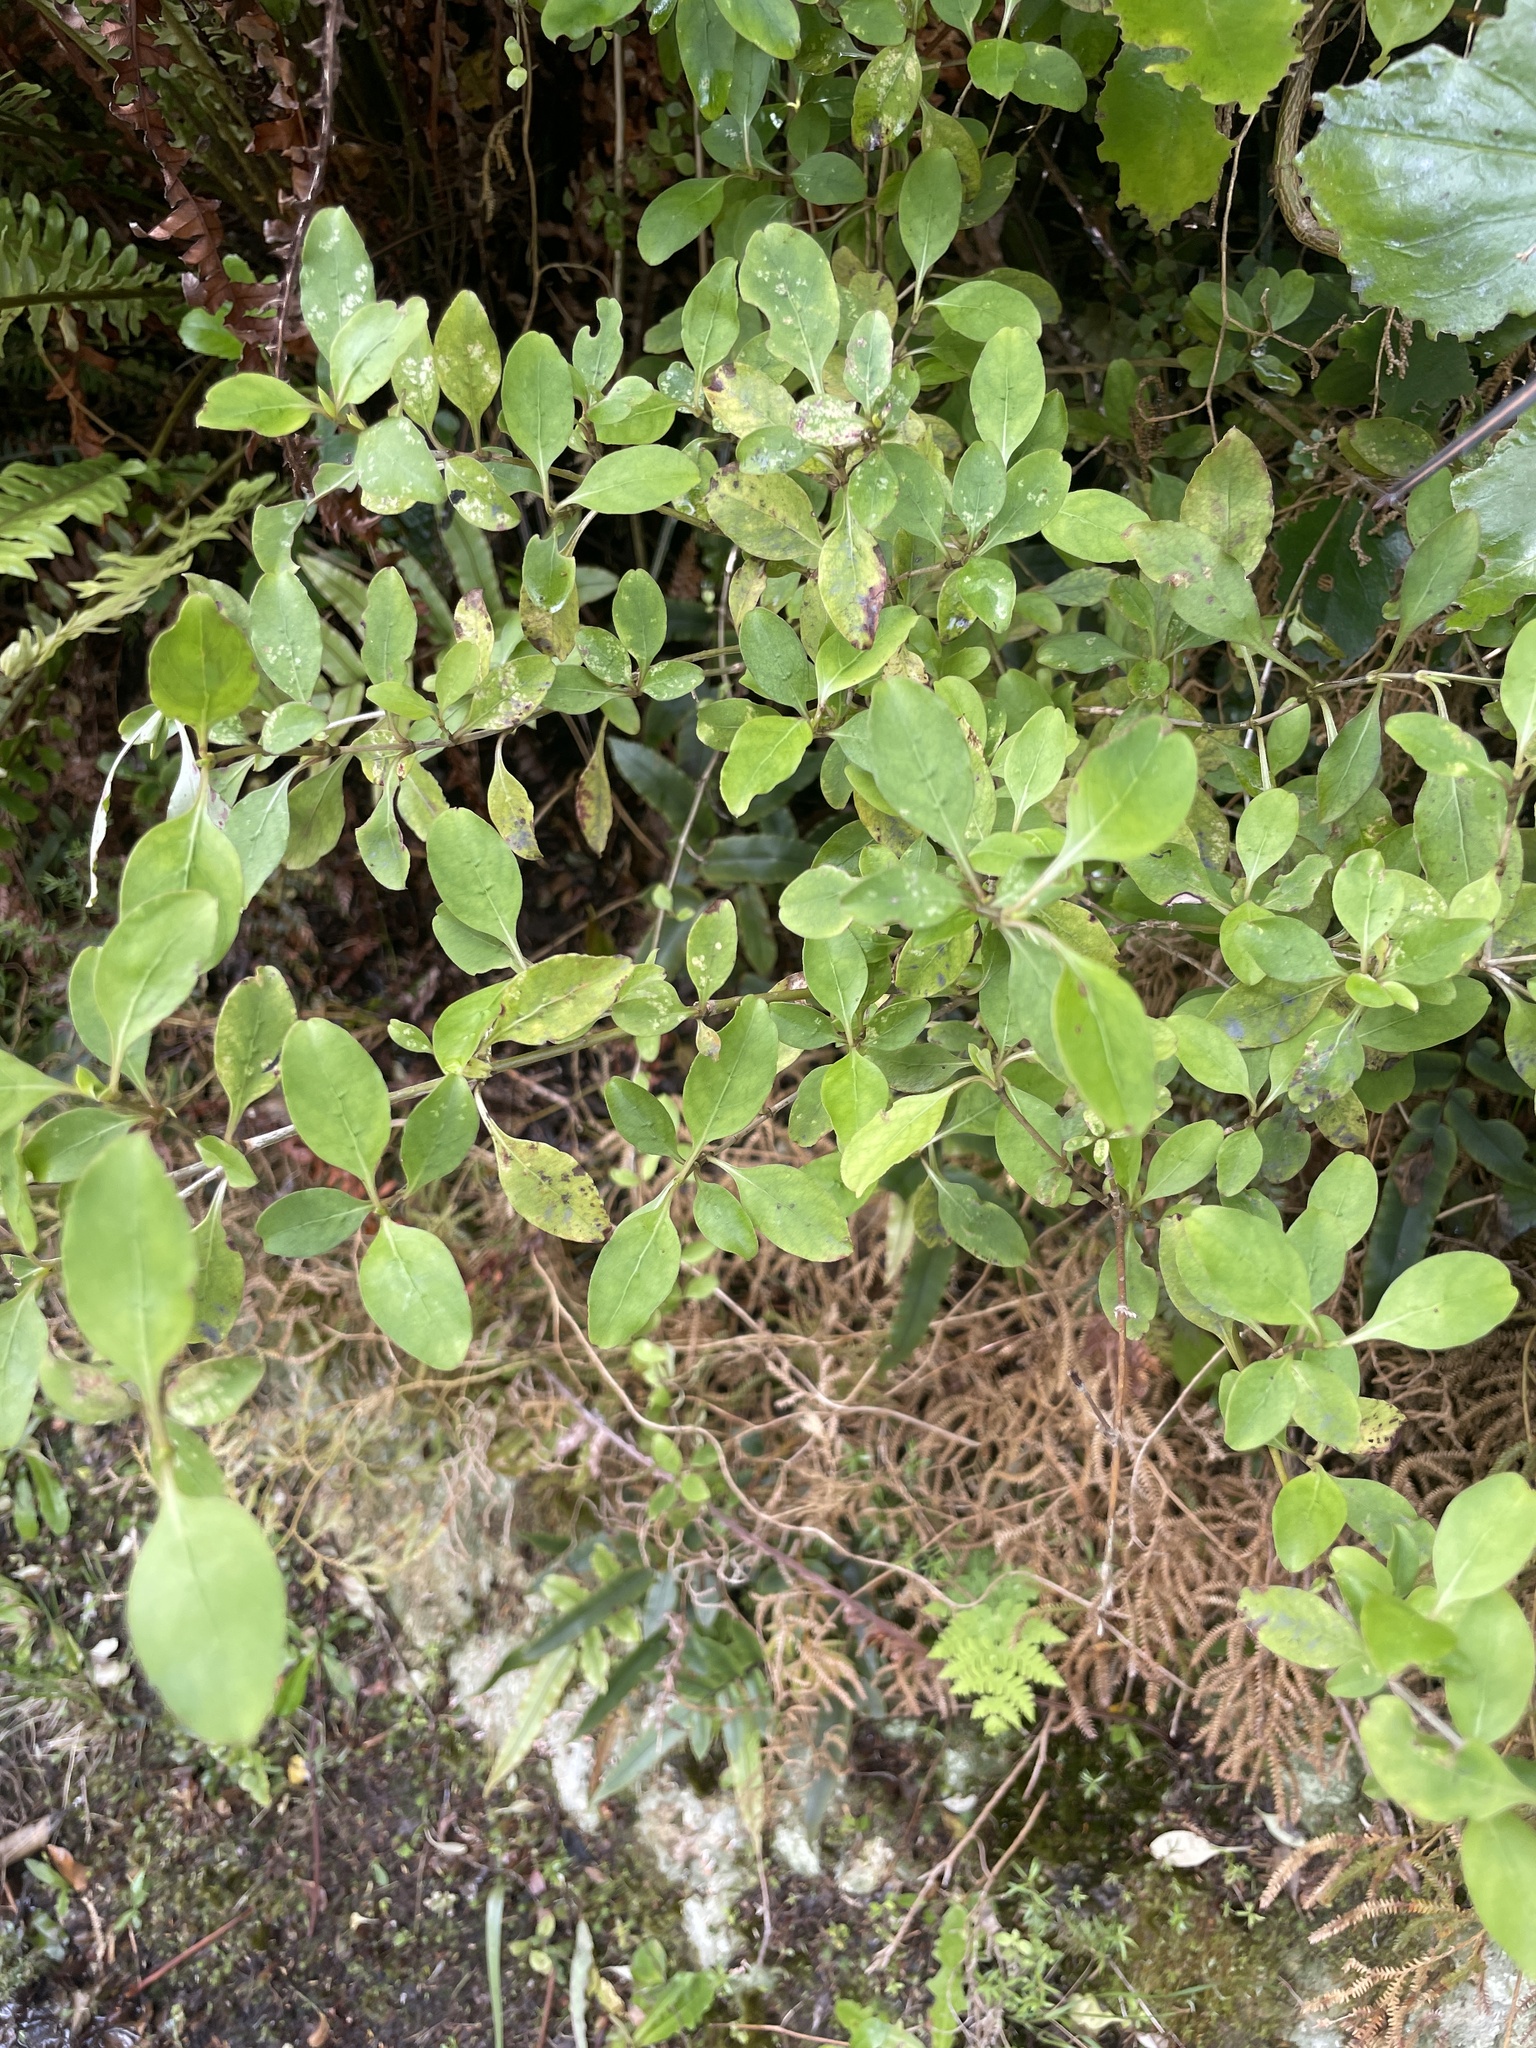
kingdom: Plantae
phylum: Tracheophyta
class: Magnoliopsida
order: Gentianales
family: Rubiaceae
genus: Coprosma
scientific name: Coprosma foetidissima
